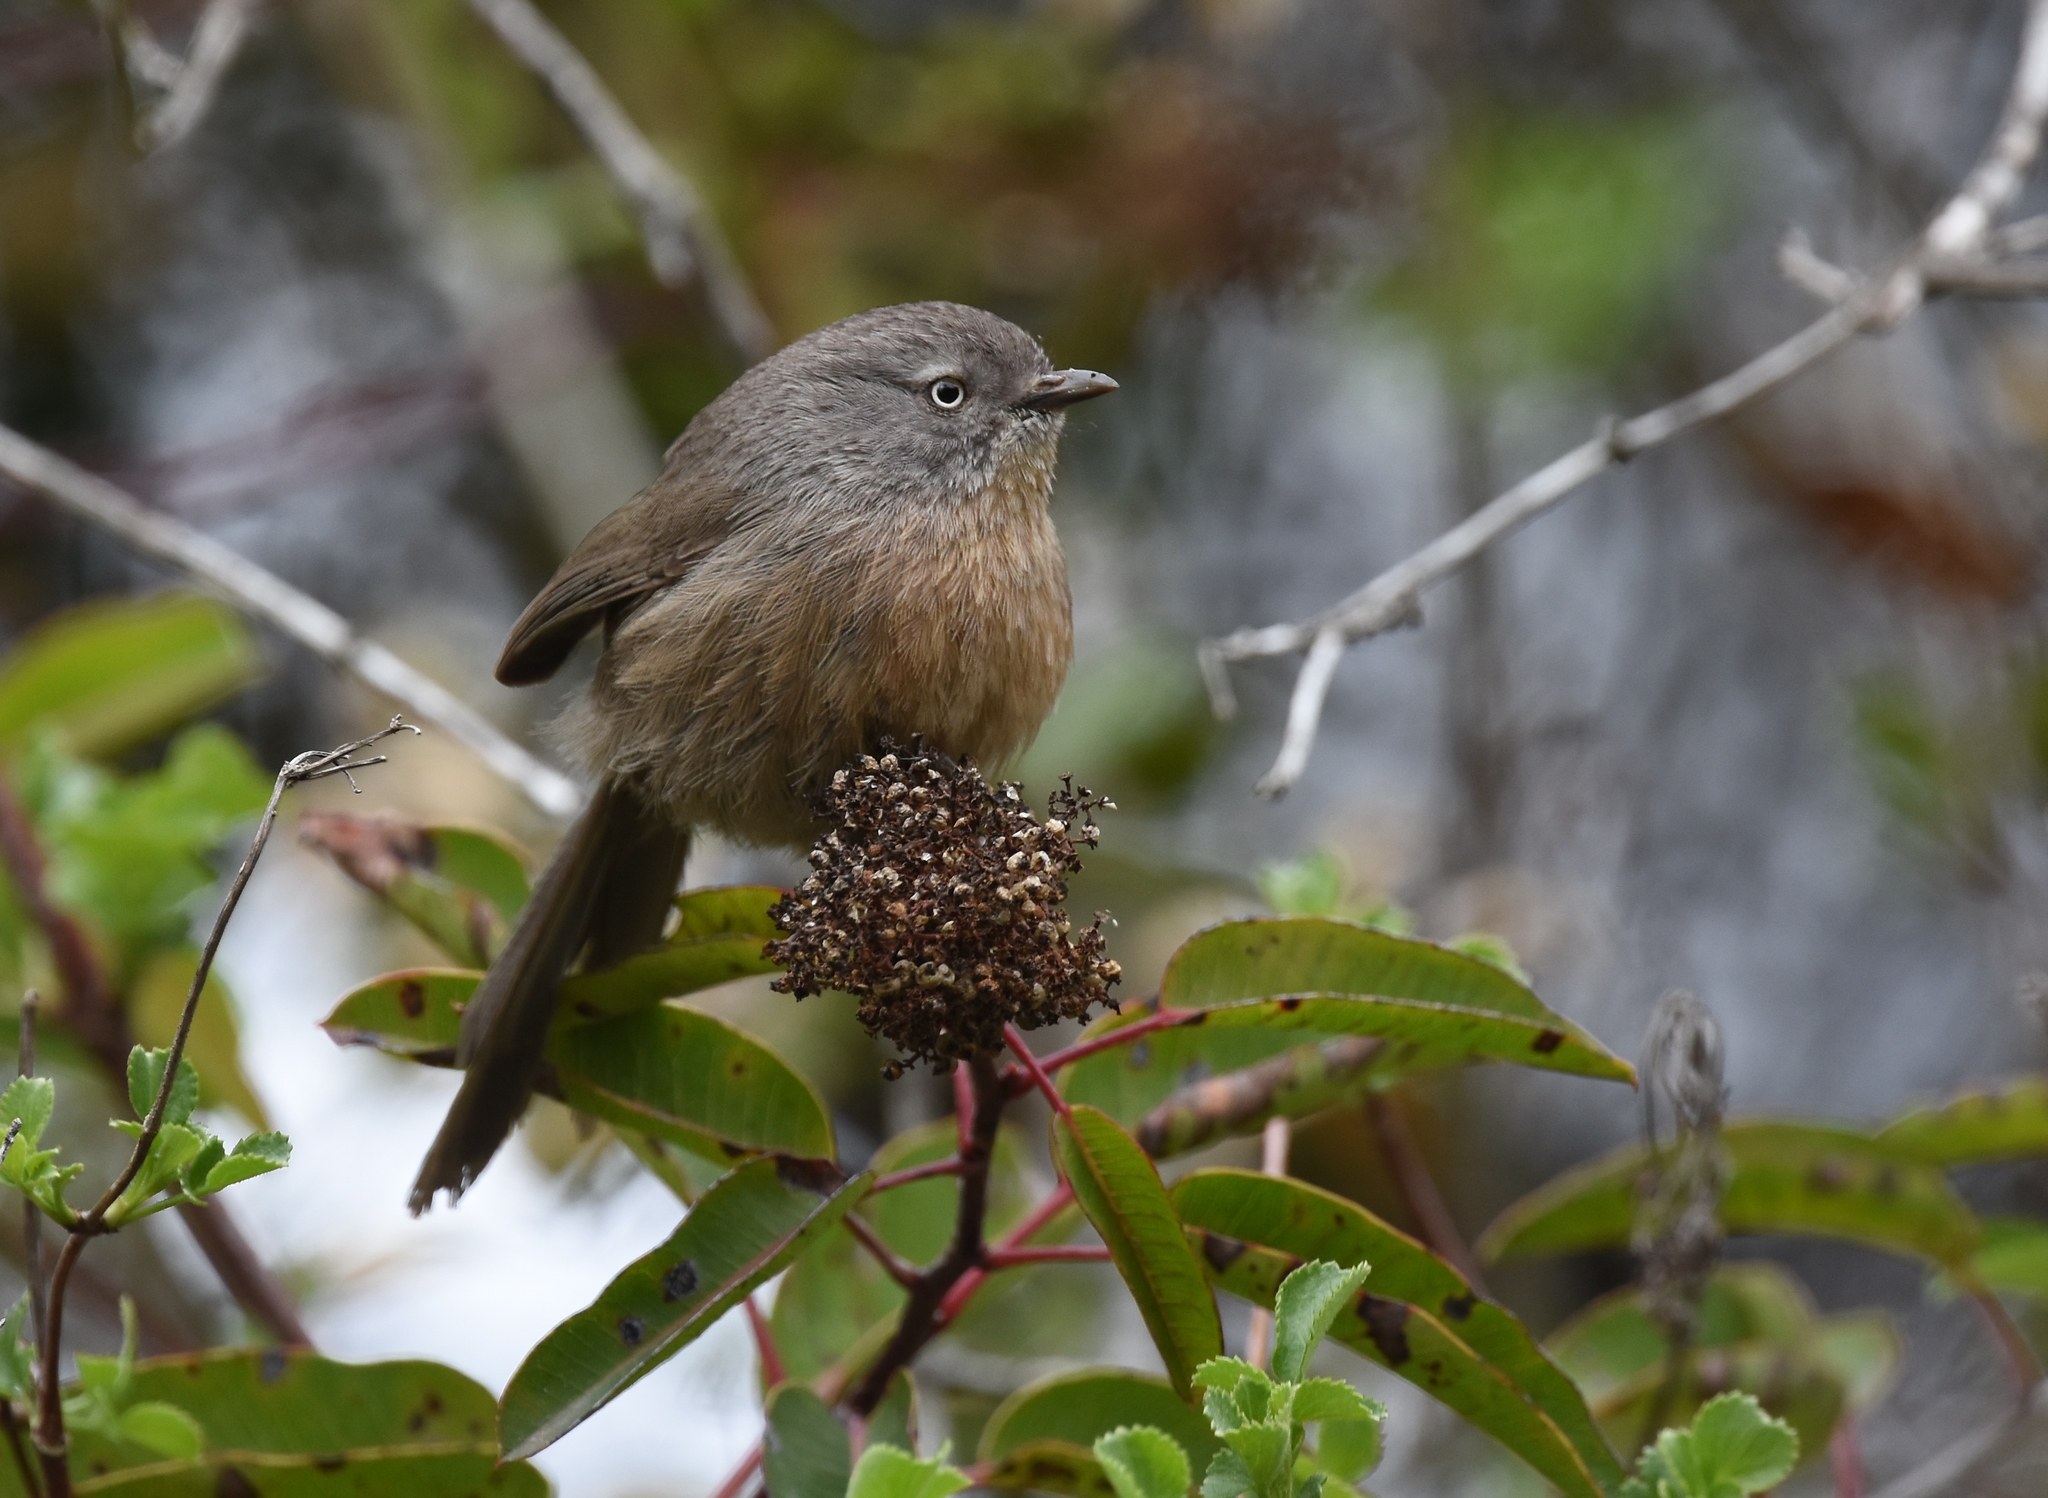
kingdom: Animalia
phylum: Chordata
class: Aves
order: Passeriformes
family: Sylviidae
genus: Chamaea
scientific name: Chamaea fasciata
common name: Wrentit
